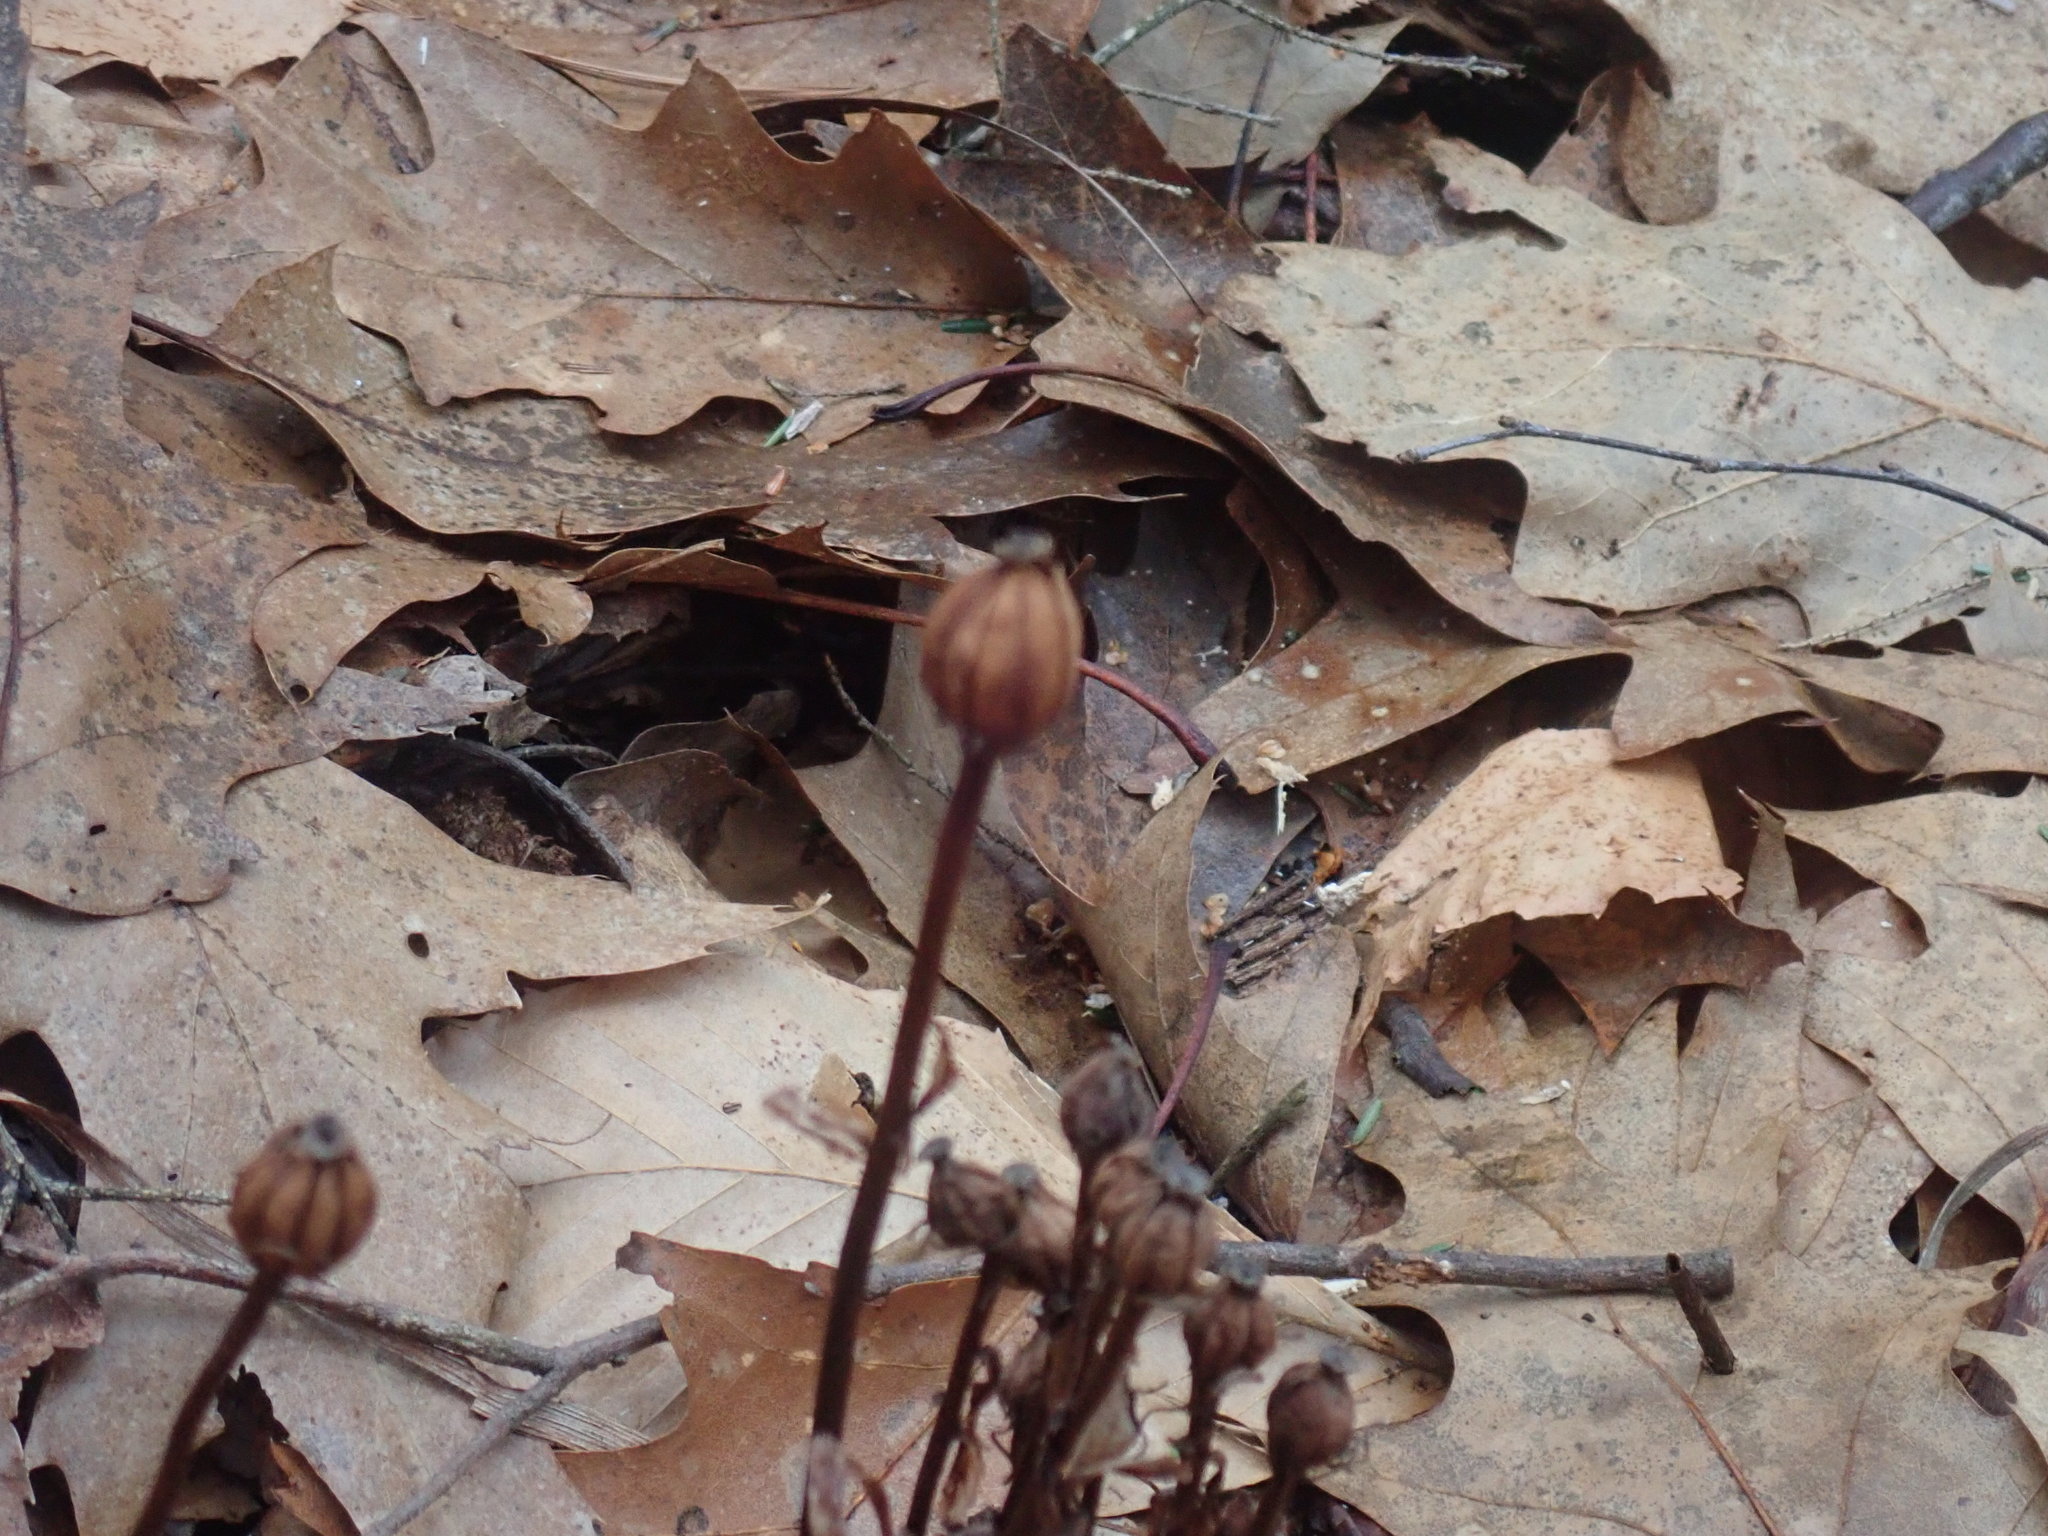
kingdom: Plantae
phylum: Tracheophyta
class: Magnoliopsida
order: Ericales
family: Ericaceae
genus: Monotropa
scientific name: Monotropa uniflora
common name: Convulsion root
